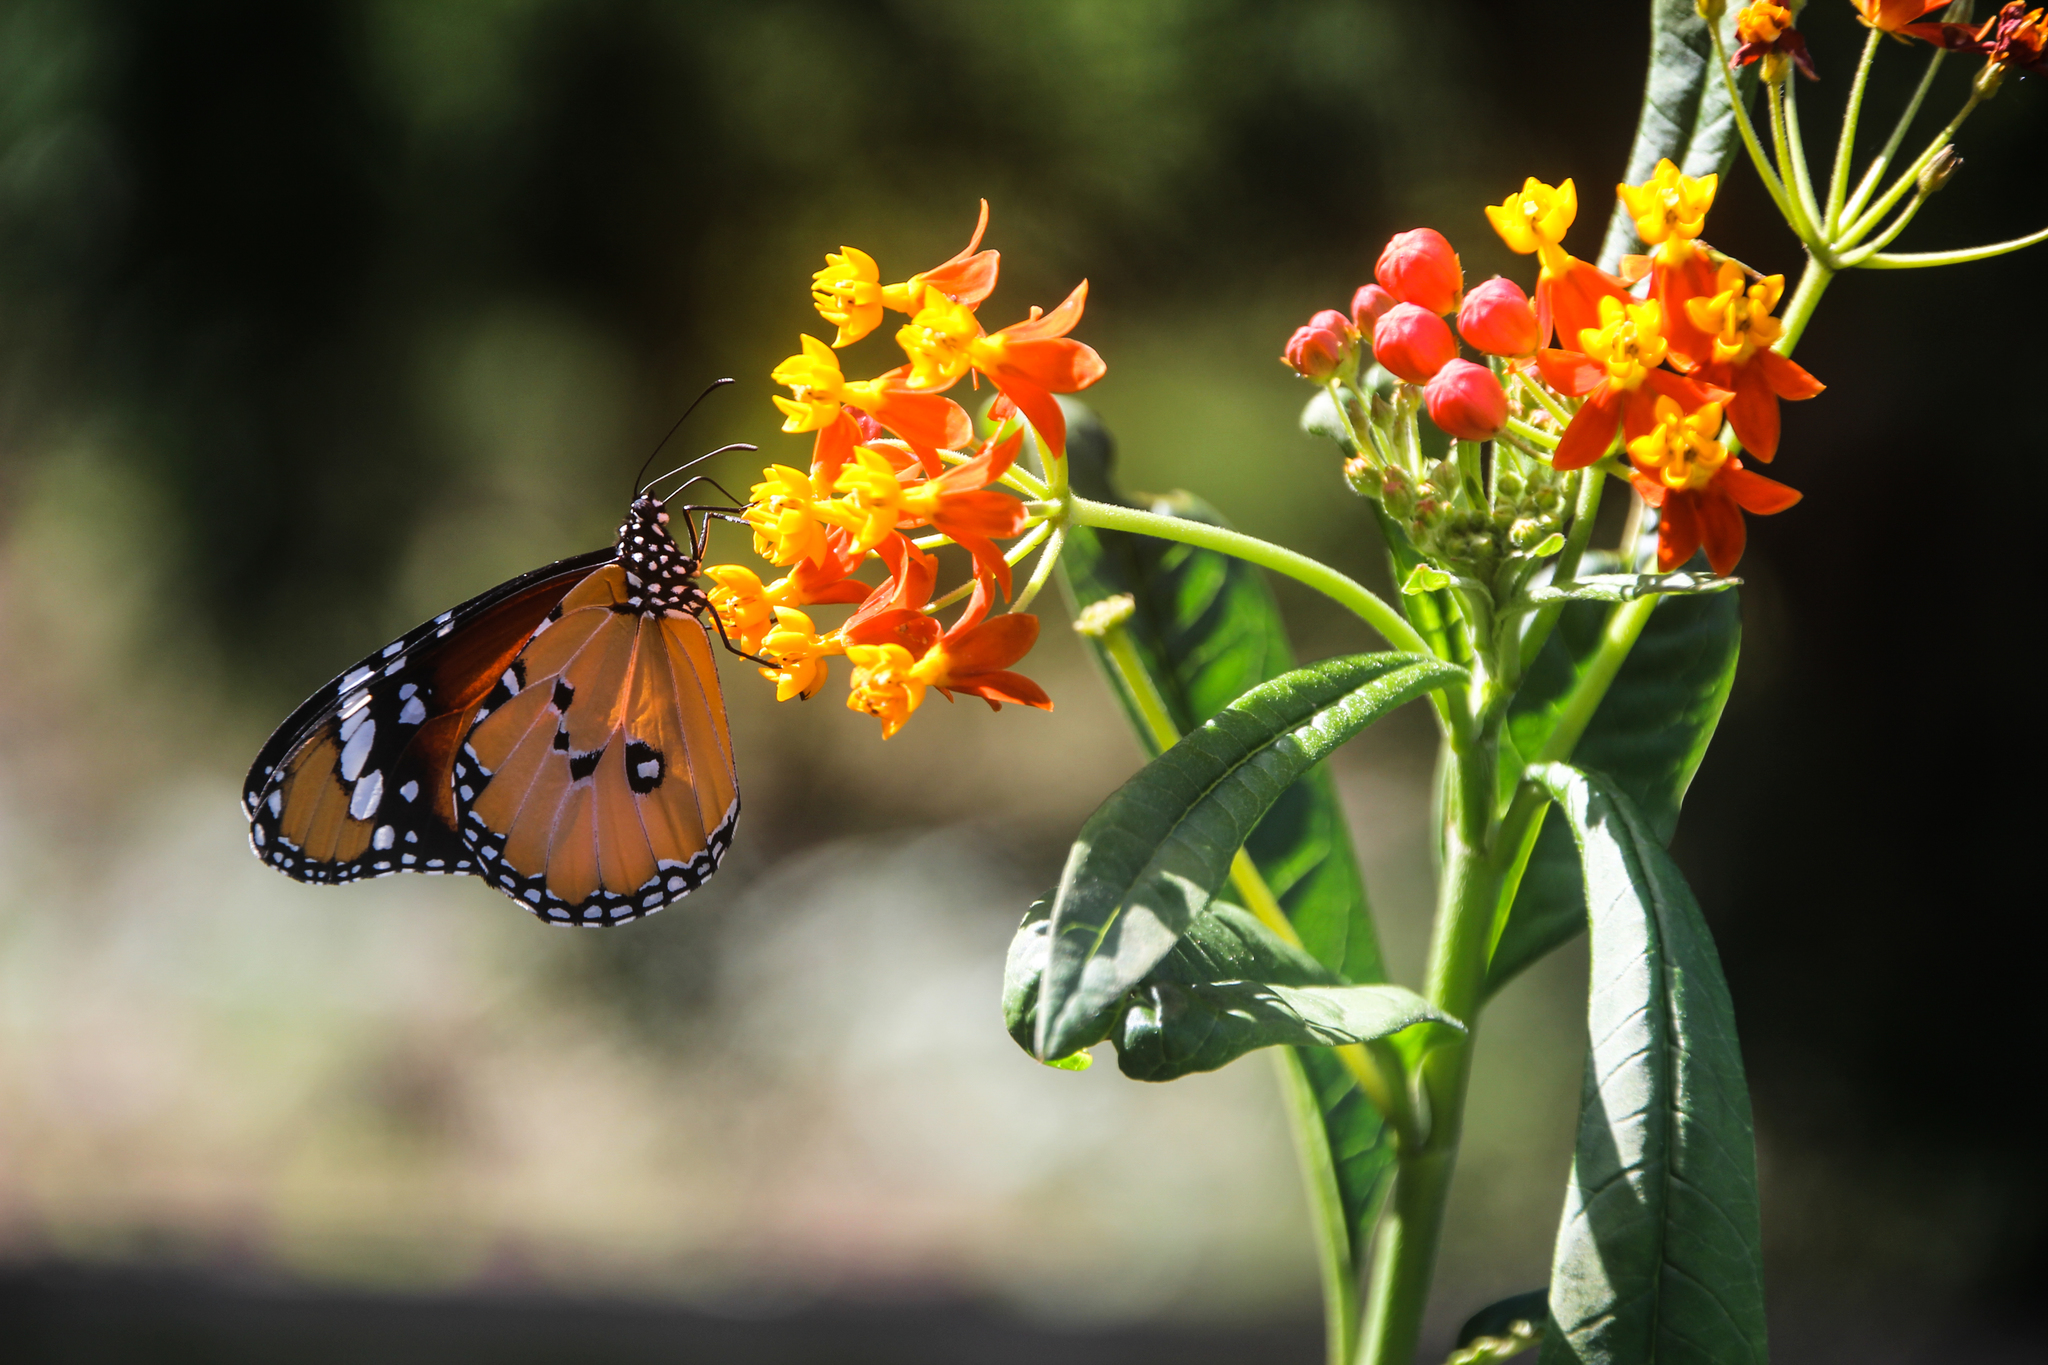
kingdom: Animalia
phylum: Arthropoda
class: Insecta
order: Lepidoptera
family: Nymphalidae
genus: Danaus
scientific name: Danaus chrysippus
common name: Plain tiger
